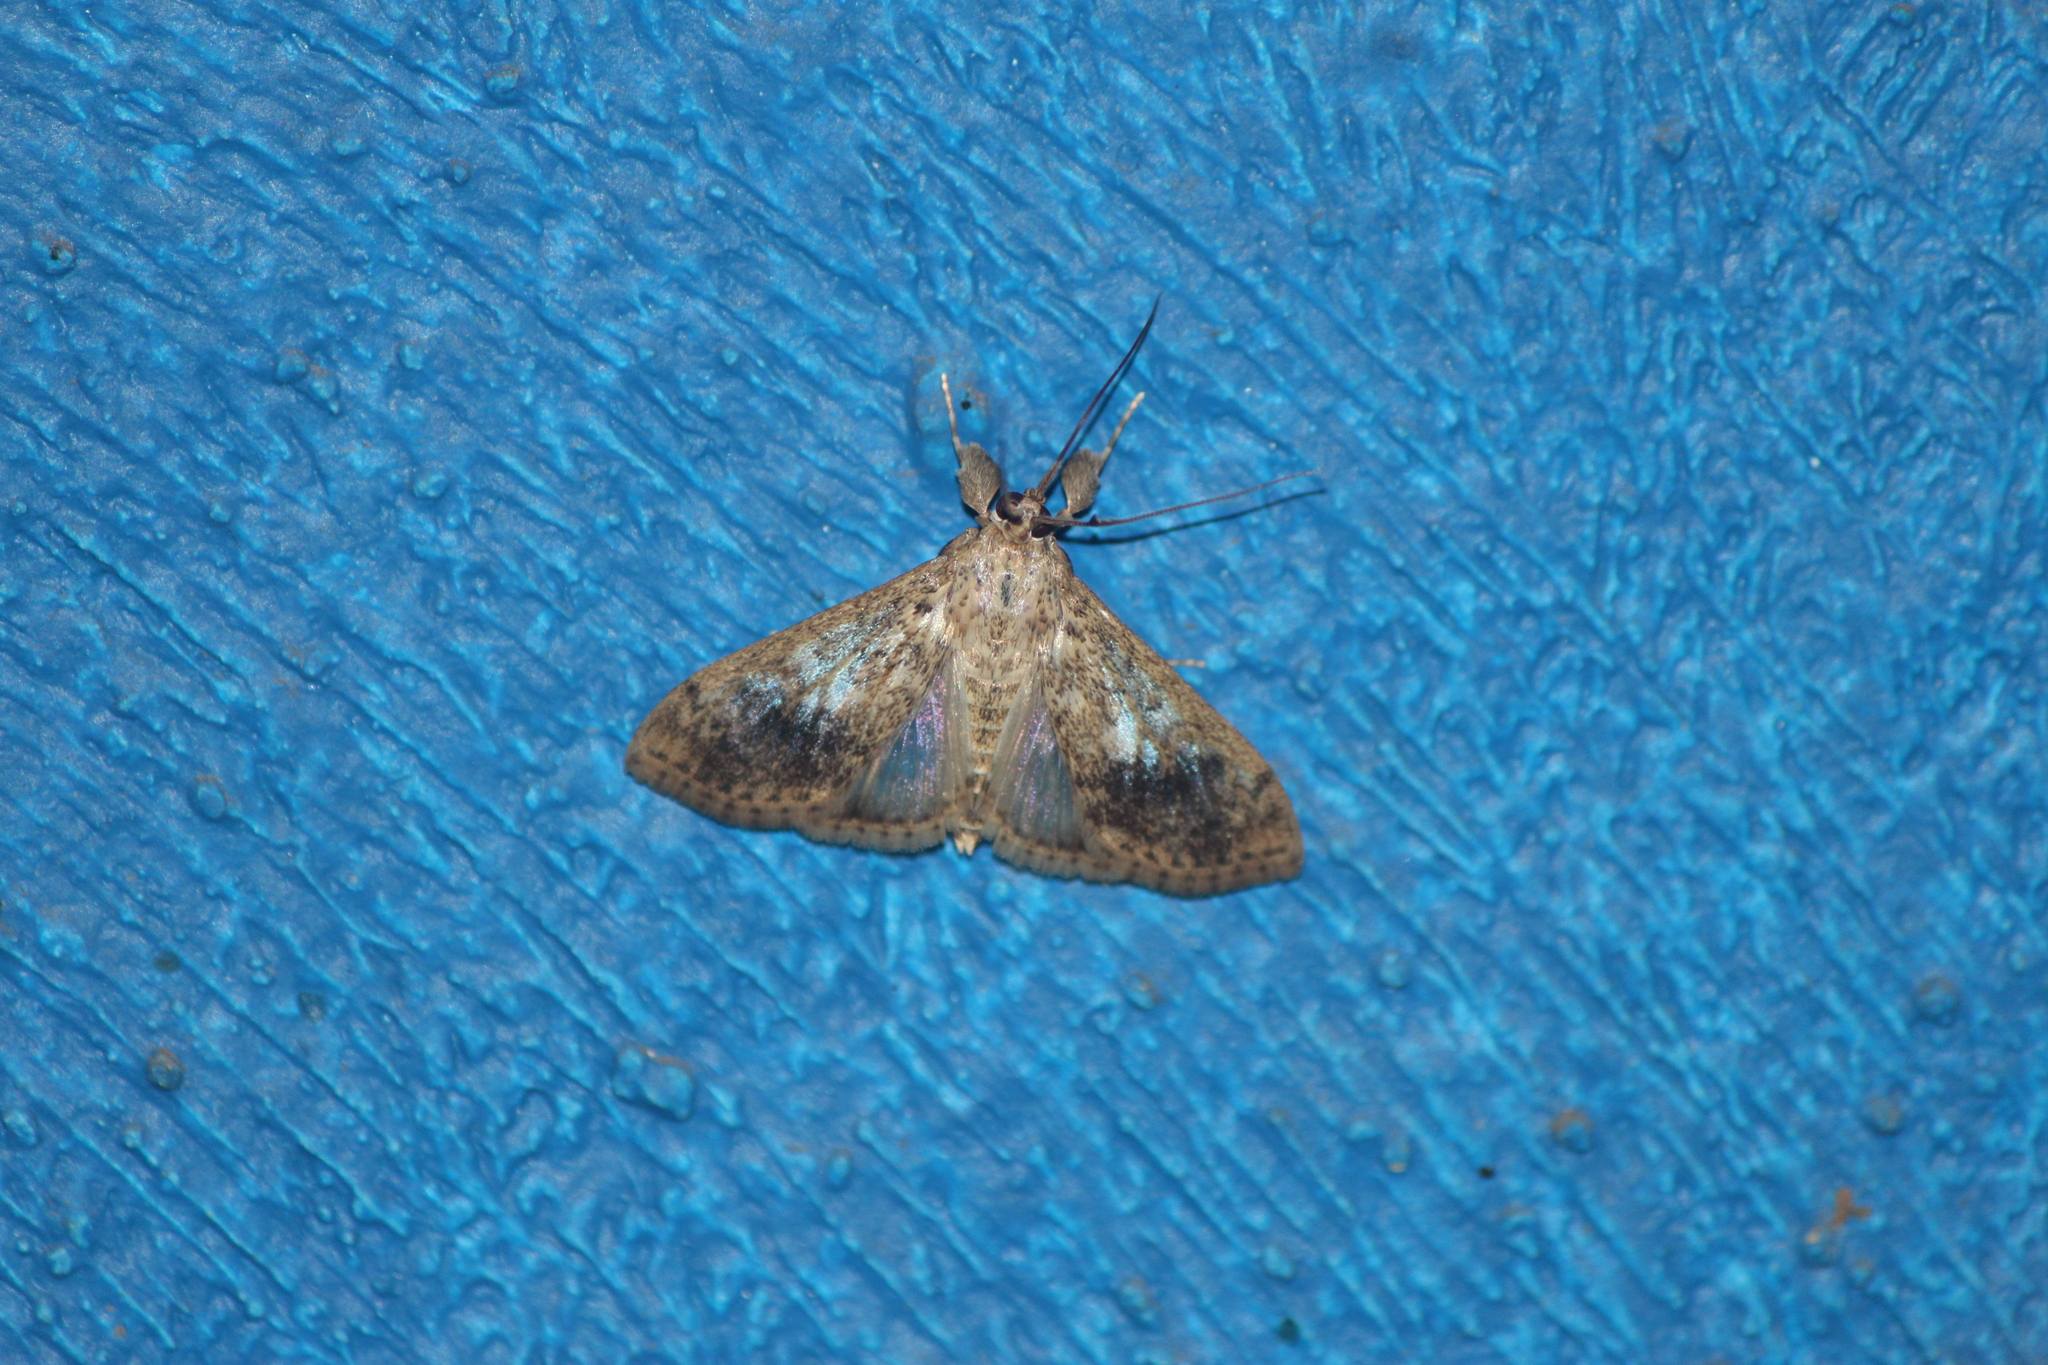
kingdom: Animalia
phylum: Arthropoda
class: Insecta
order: Lepidoptera
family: Crambidae
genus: Asciodes
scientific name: Asciodes gordialis
